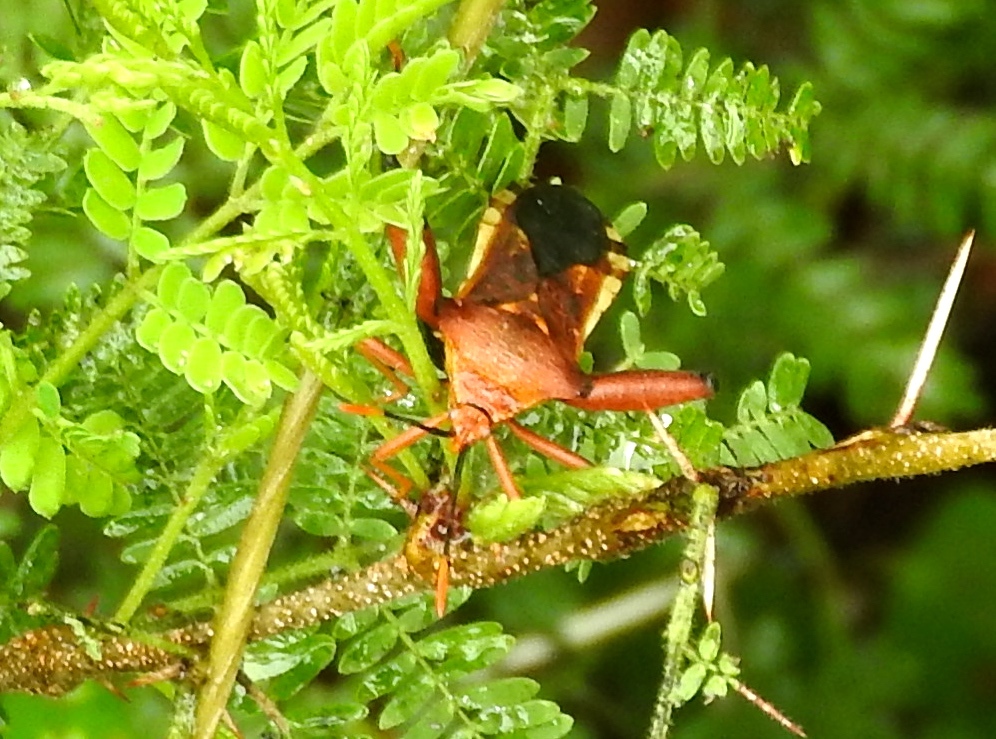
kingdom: Animalia
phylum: Arthropoda
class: Insecta
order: Hemiptera
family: Coreidae
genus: Mozena
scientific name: Mozena
